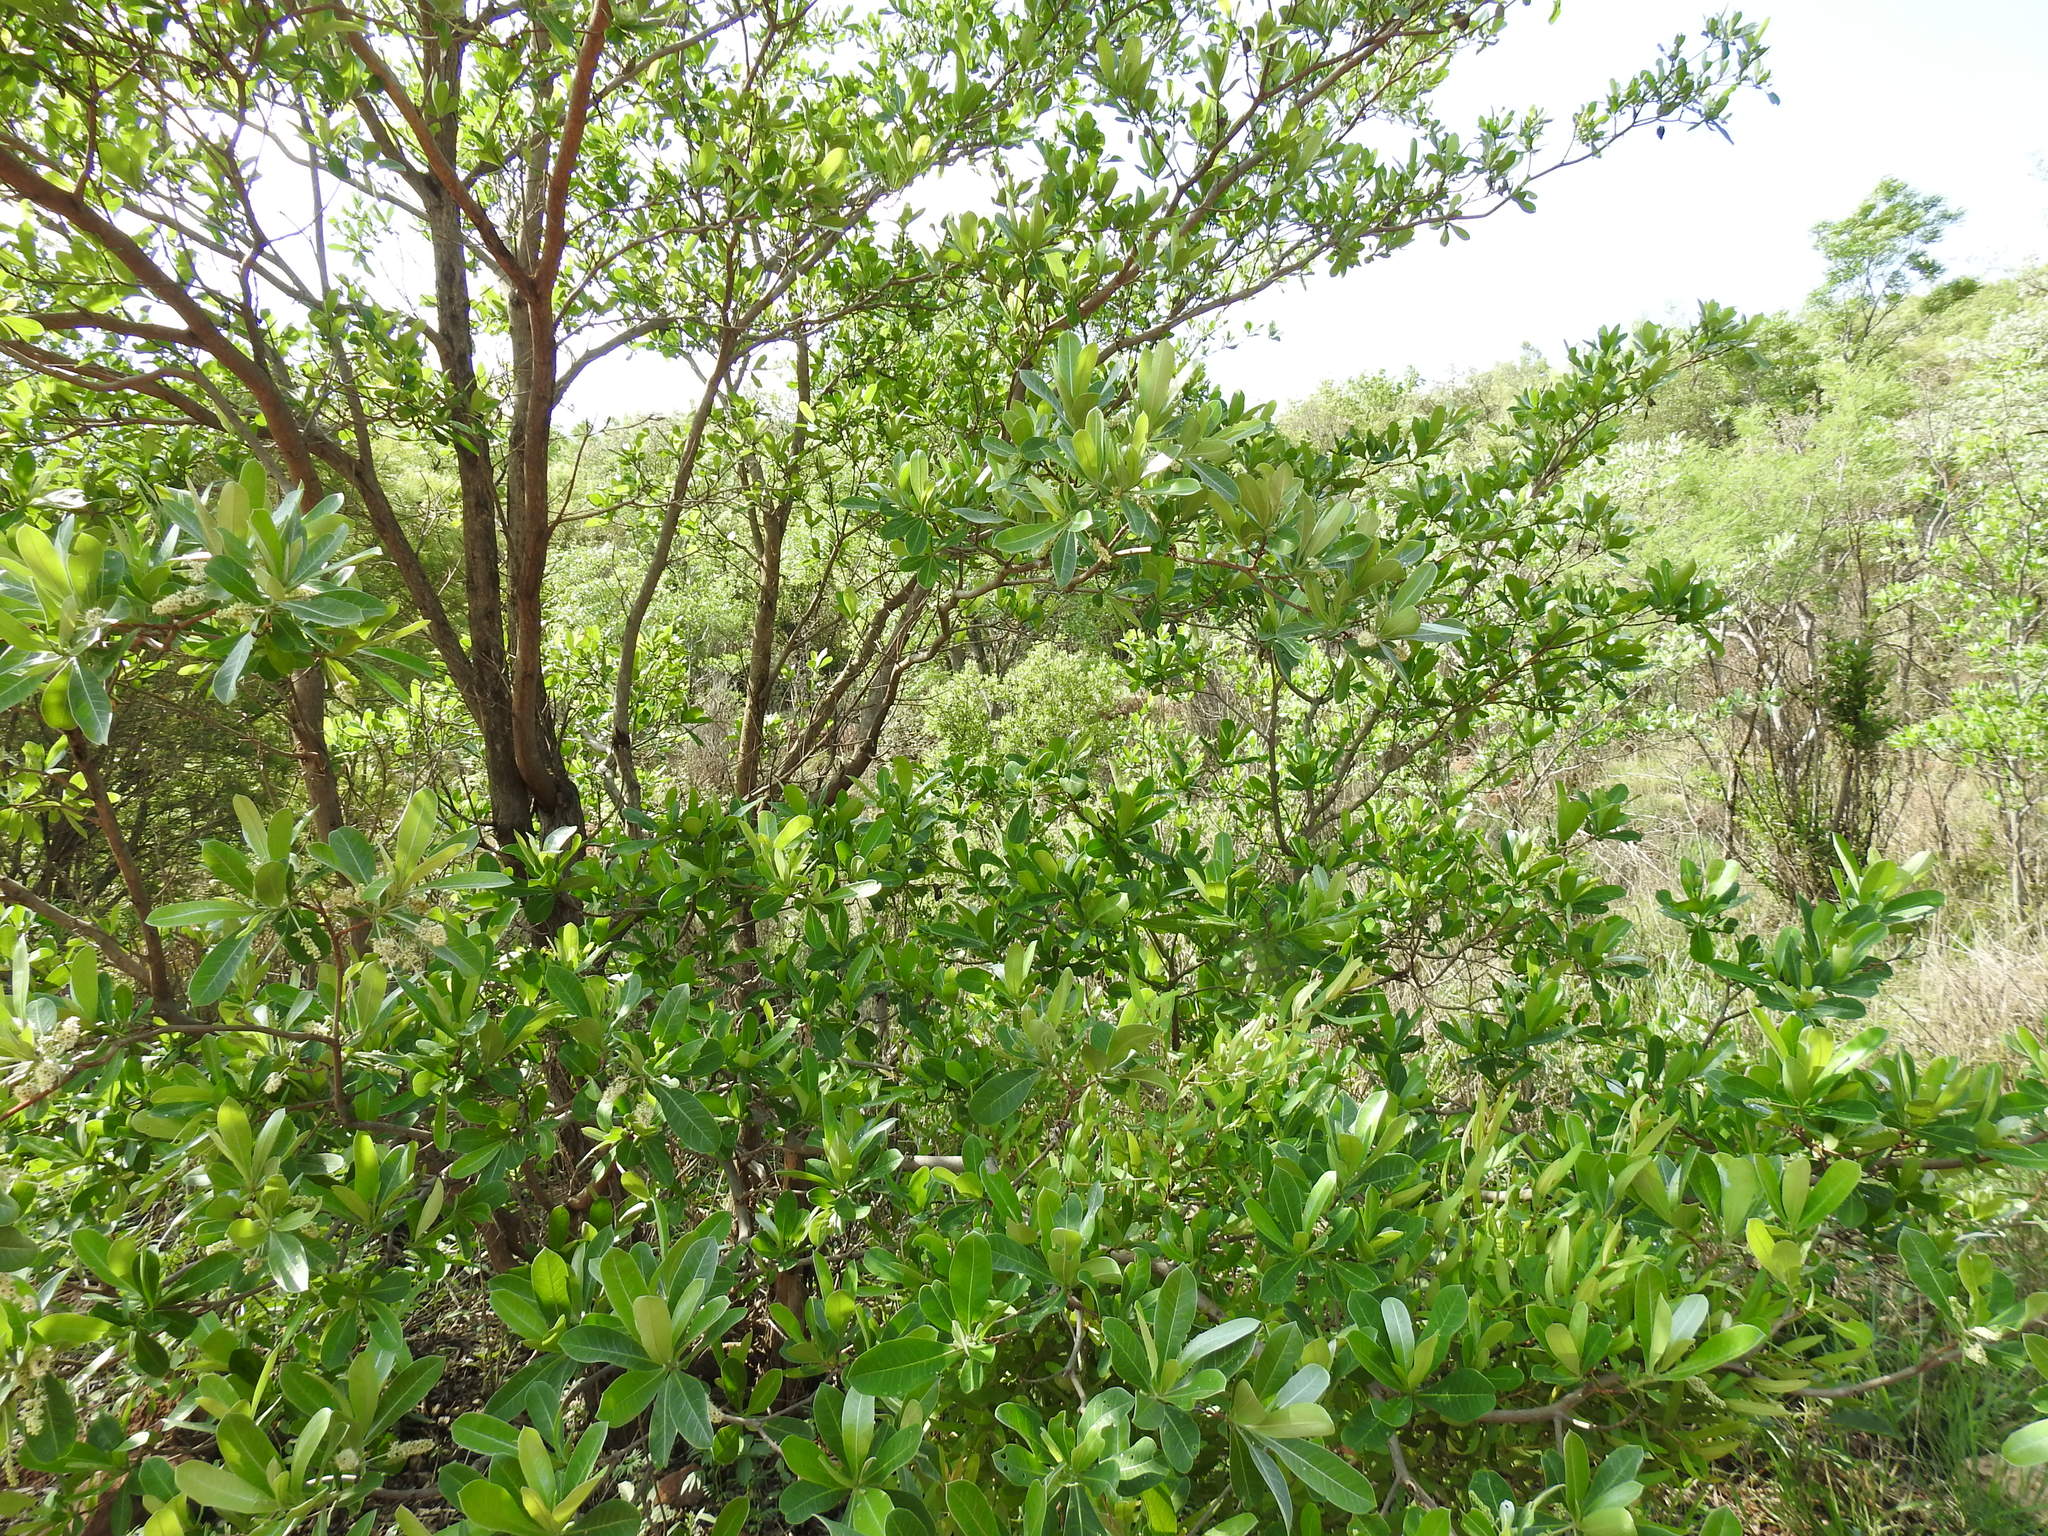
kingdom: Plantae
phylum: Tracheophyta
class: Magnoliopsida
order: Myrtales
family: Combretaceae
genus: Terminalia
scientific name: Terminalia sericea
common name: Clusterleaf
